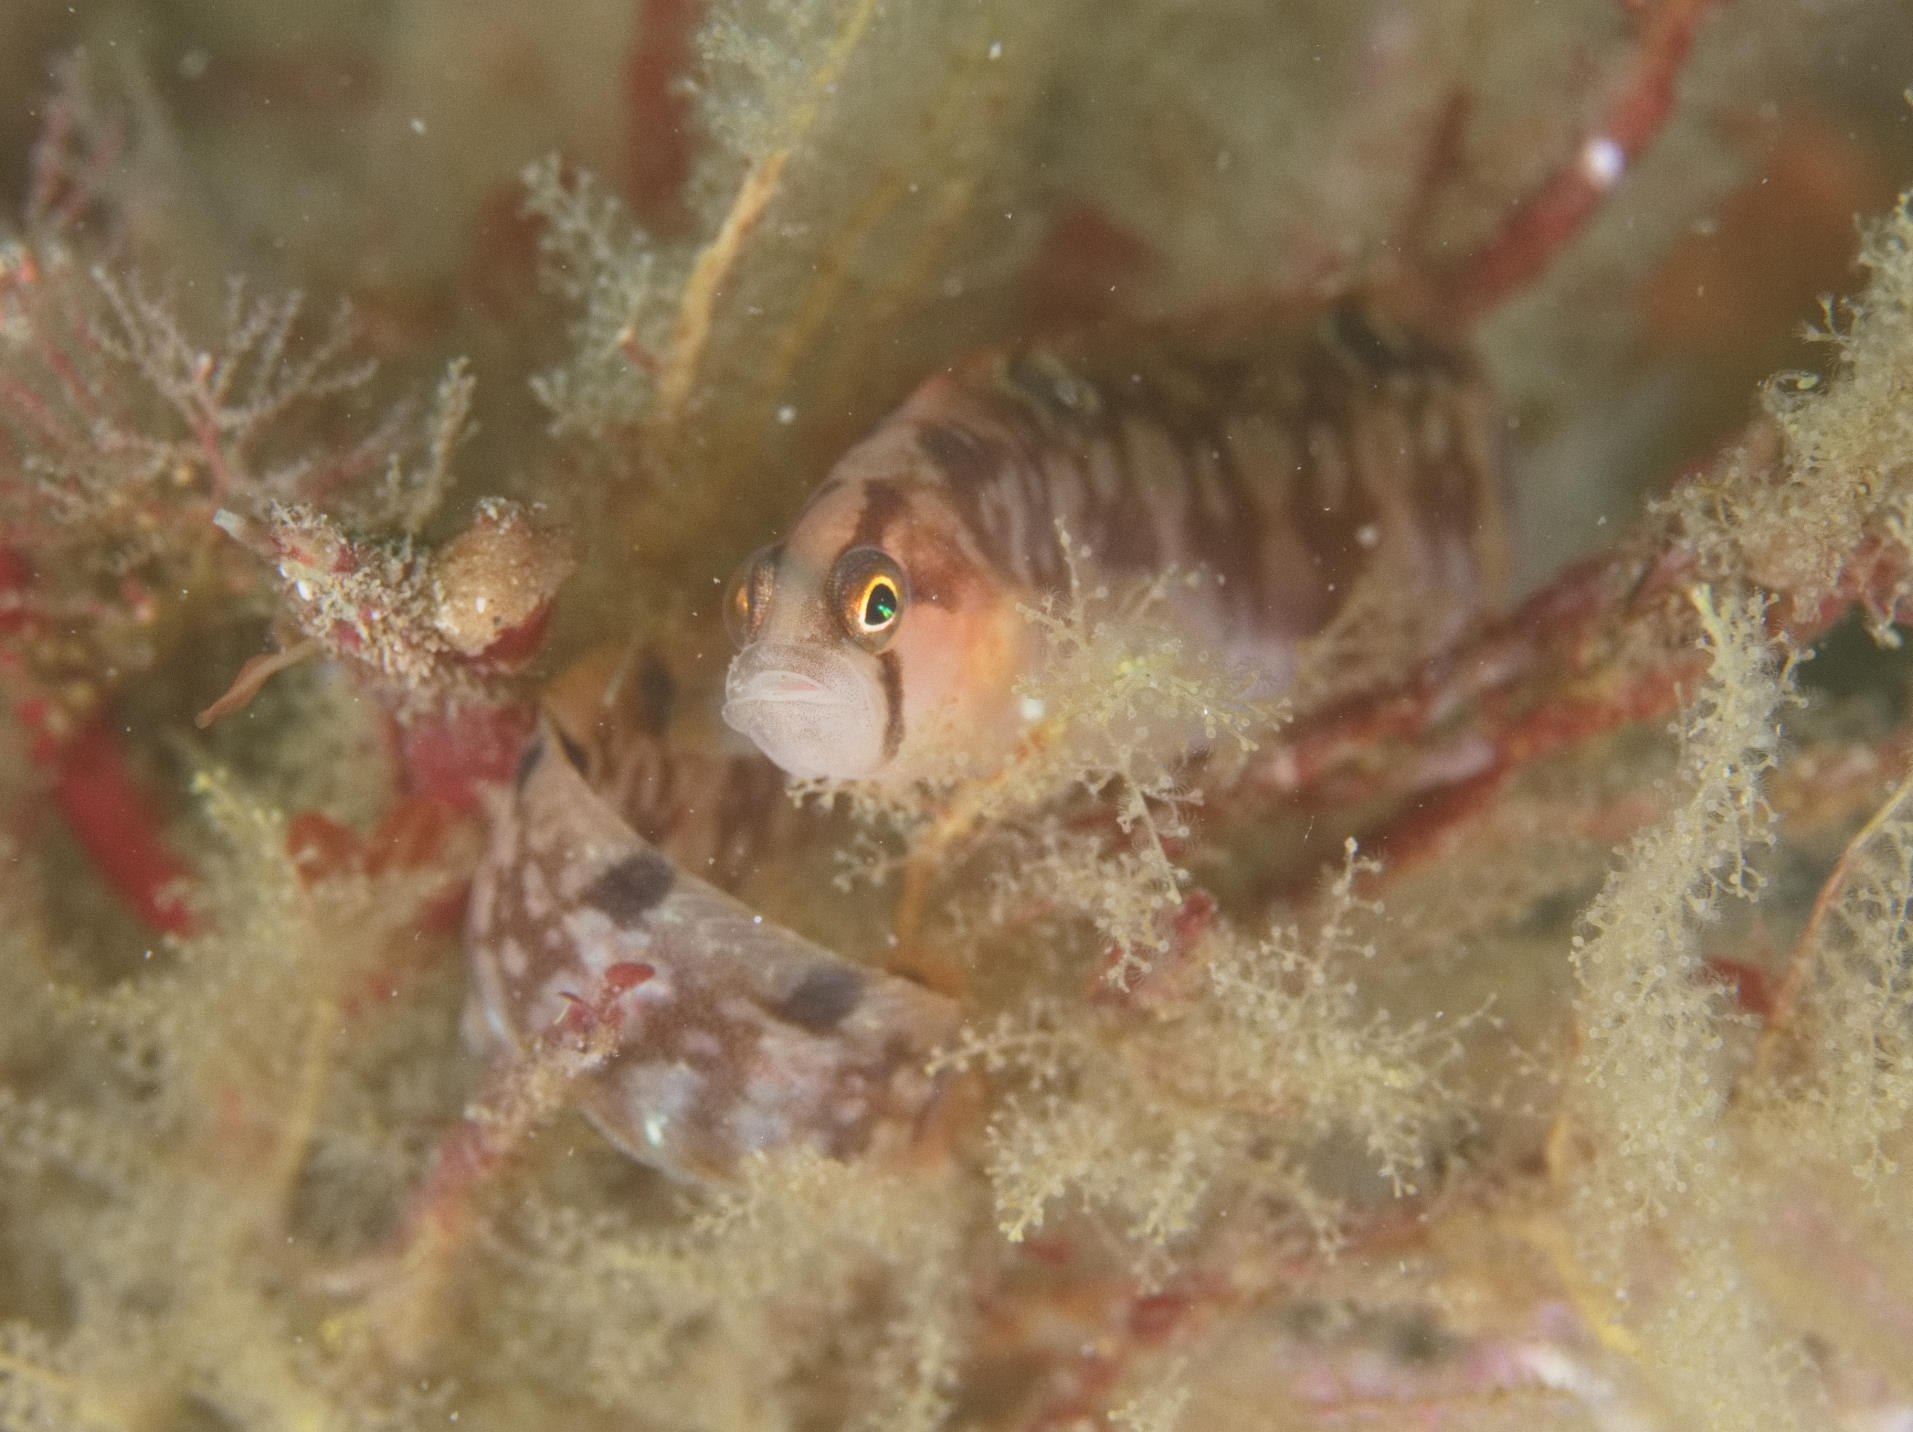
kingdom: Animalia
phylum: Chordata
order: Perciformes
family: Pholidae
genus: Pholis
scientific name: Pholis gunnellus
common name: Butterfish
